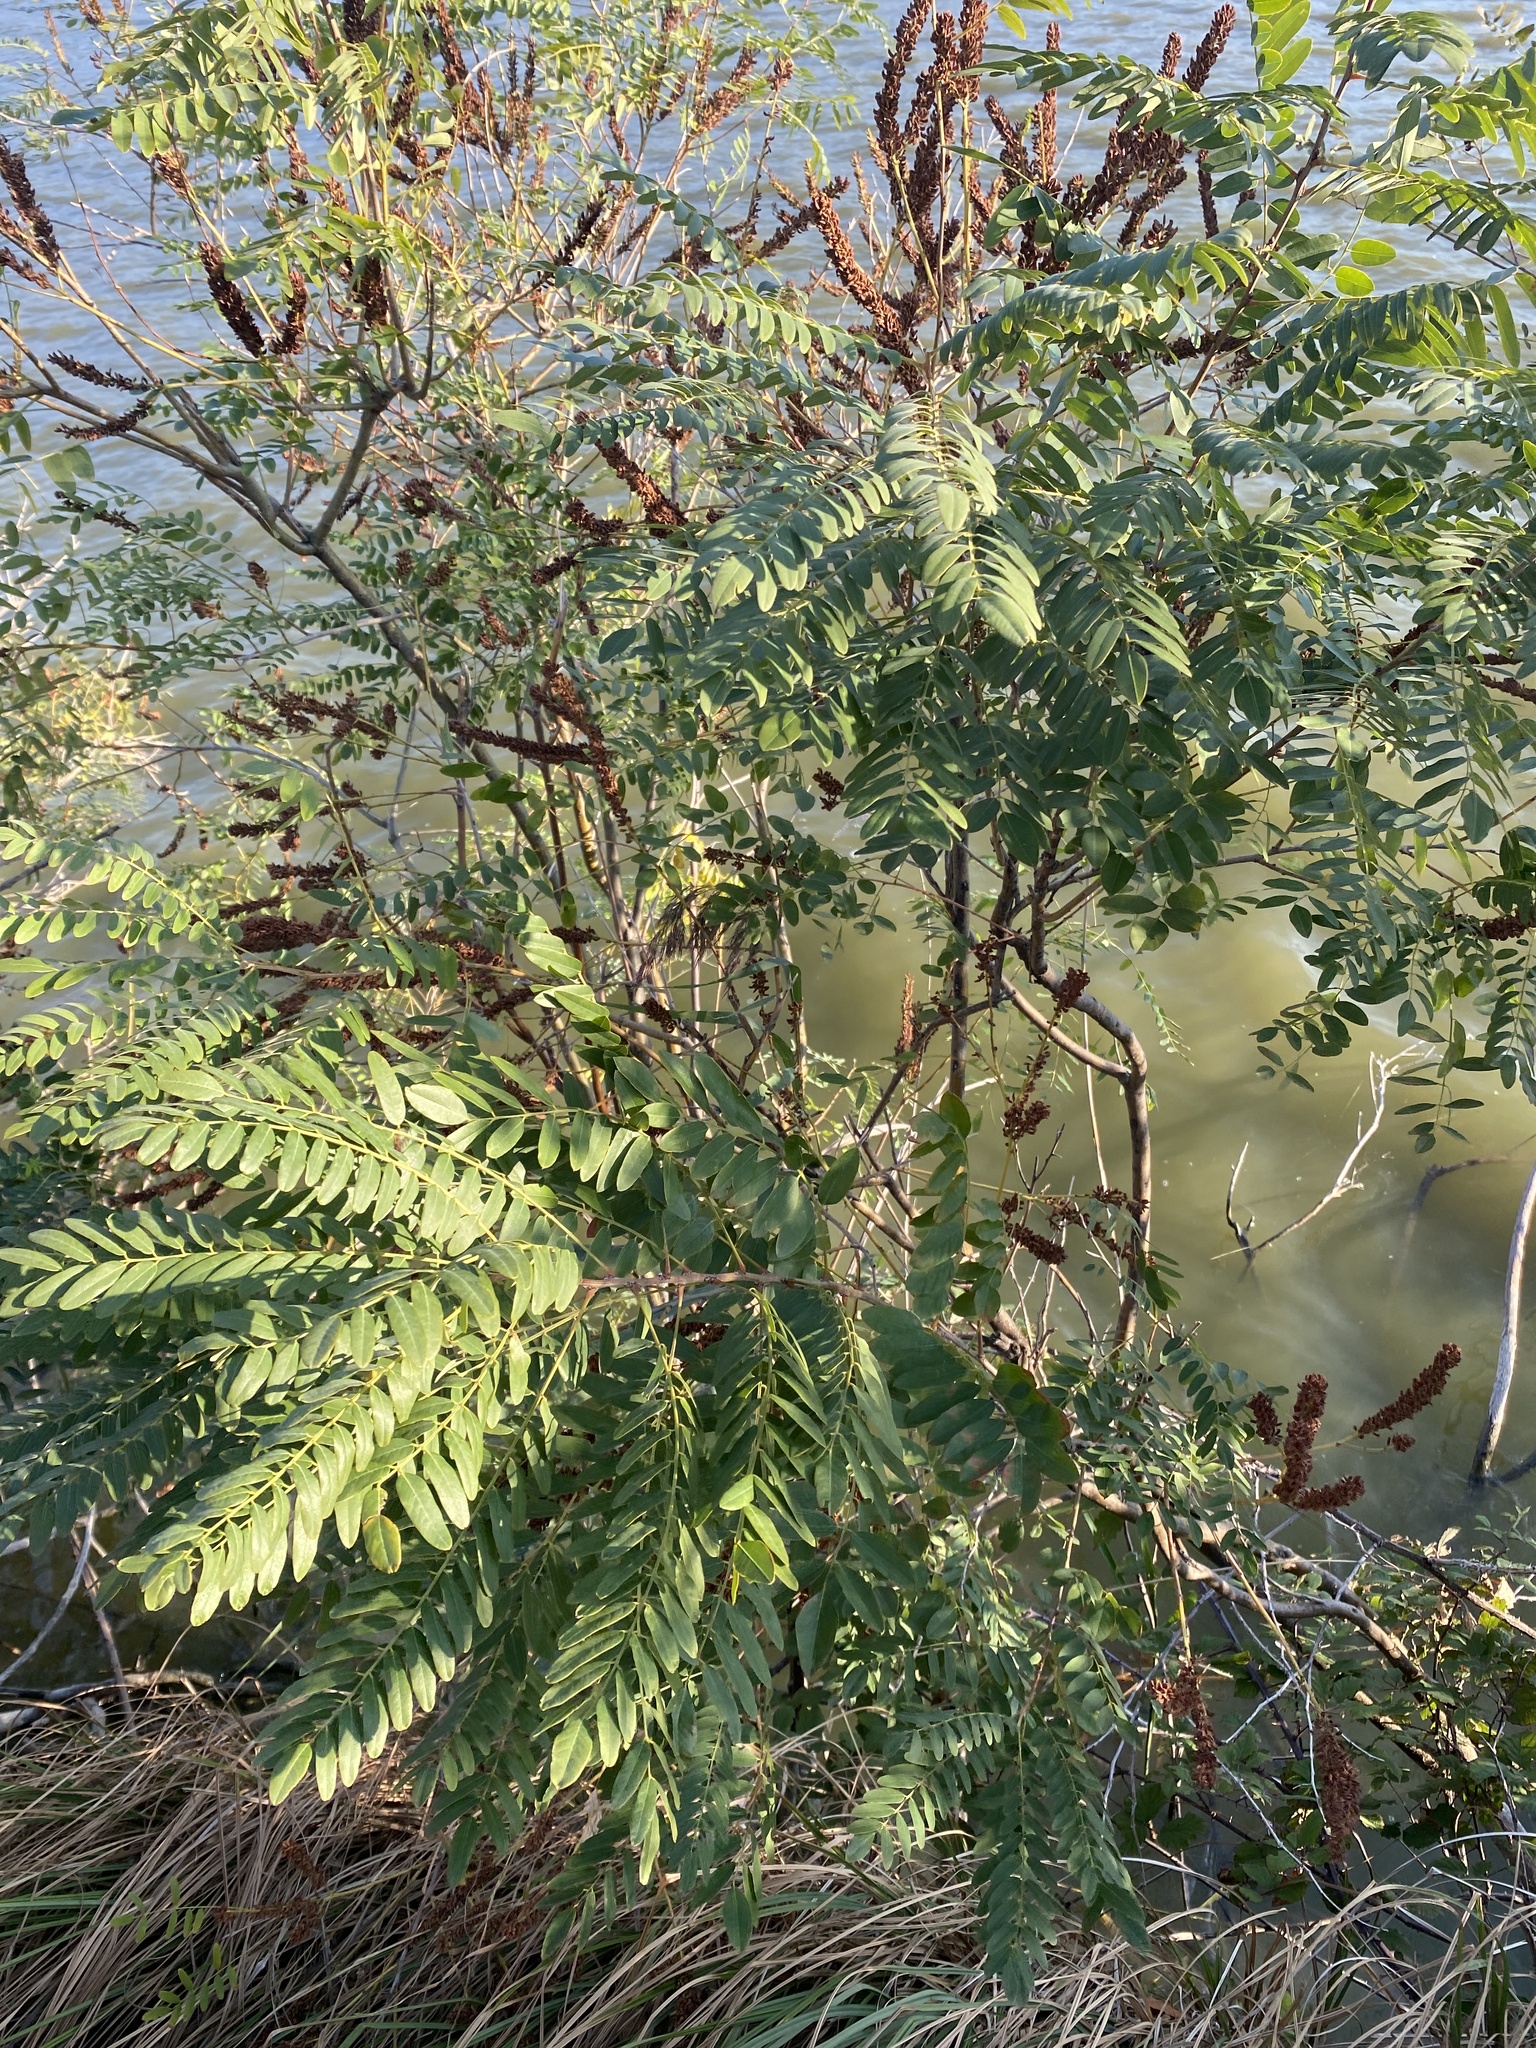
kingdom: Plantae
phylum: Tracheophyta
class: Magnoliopsida
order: Fabales
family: Fabaceae
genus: Amorpha
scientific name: Amorpha fruticosa
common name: False indigo
